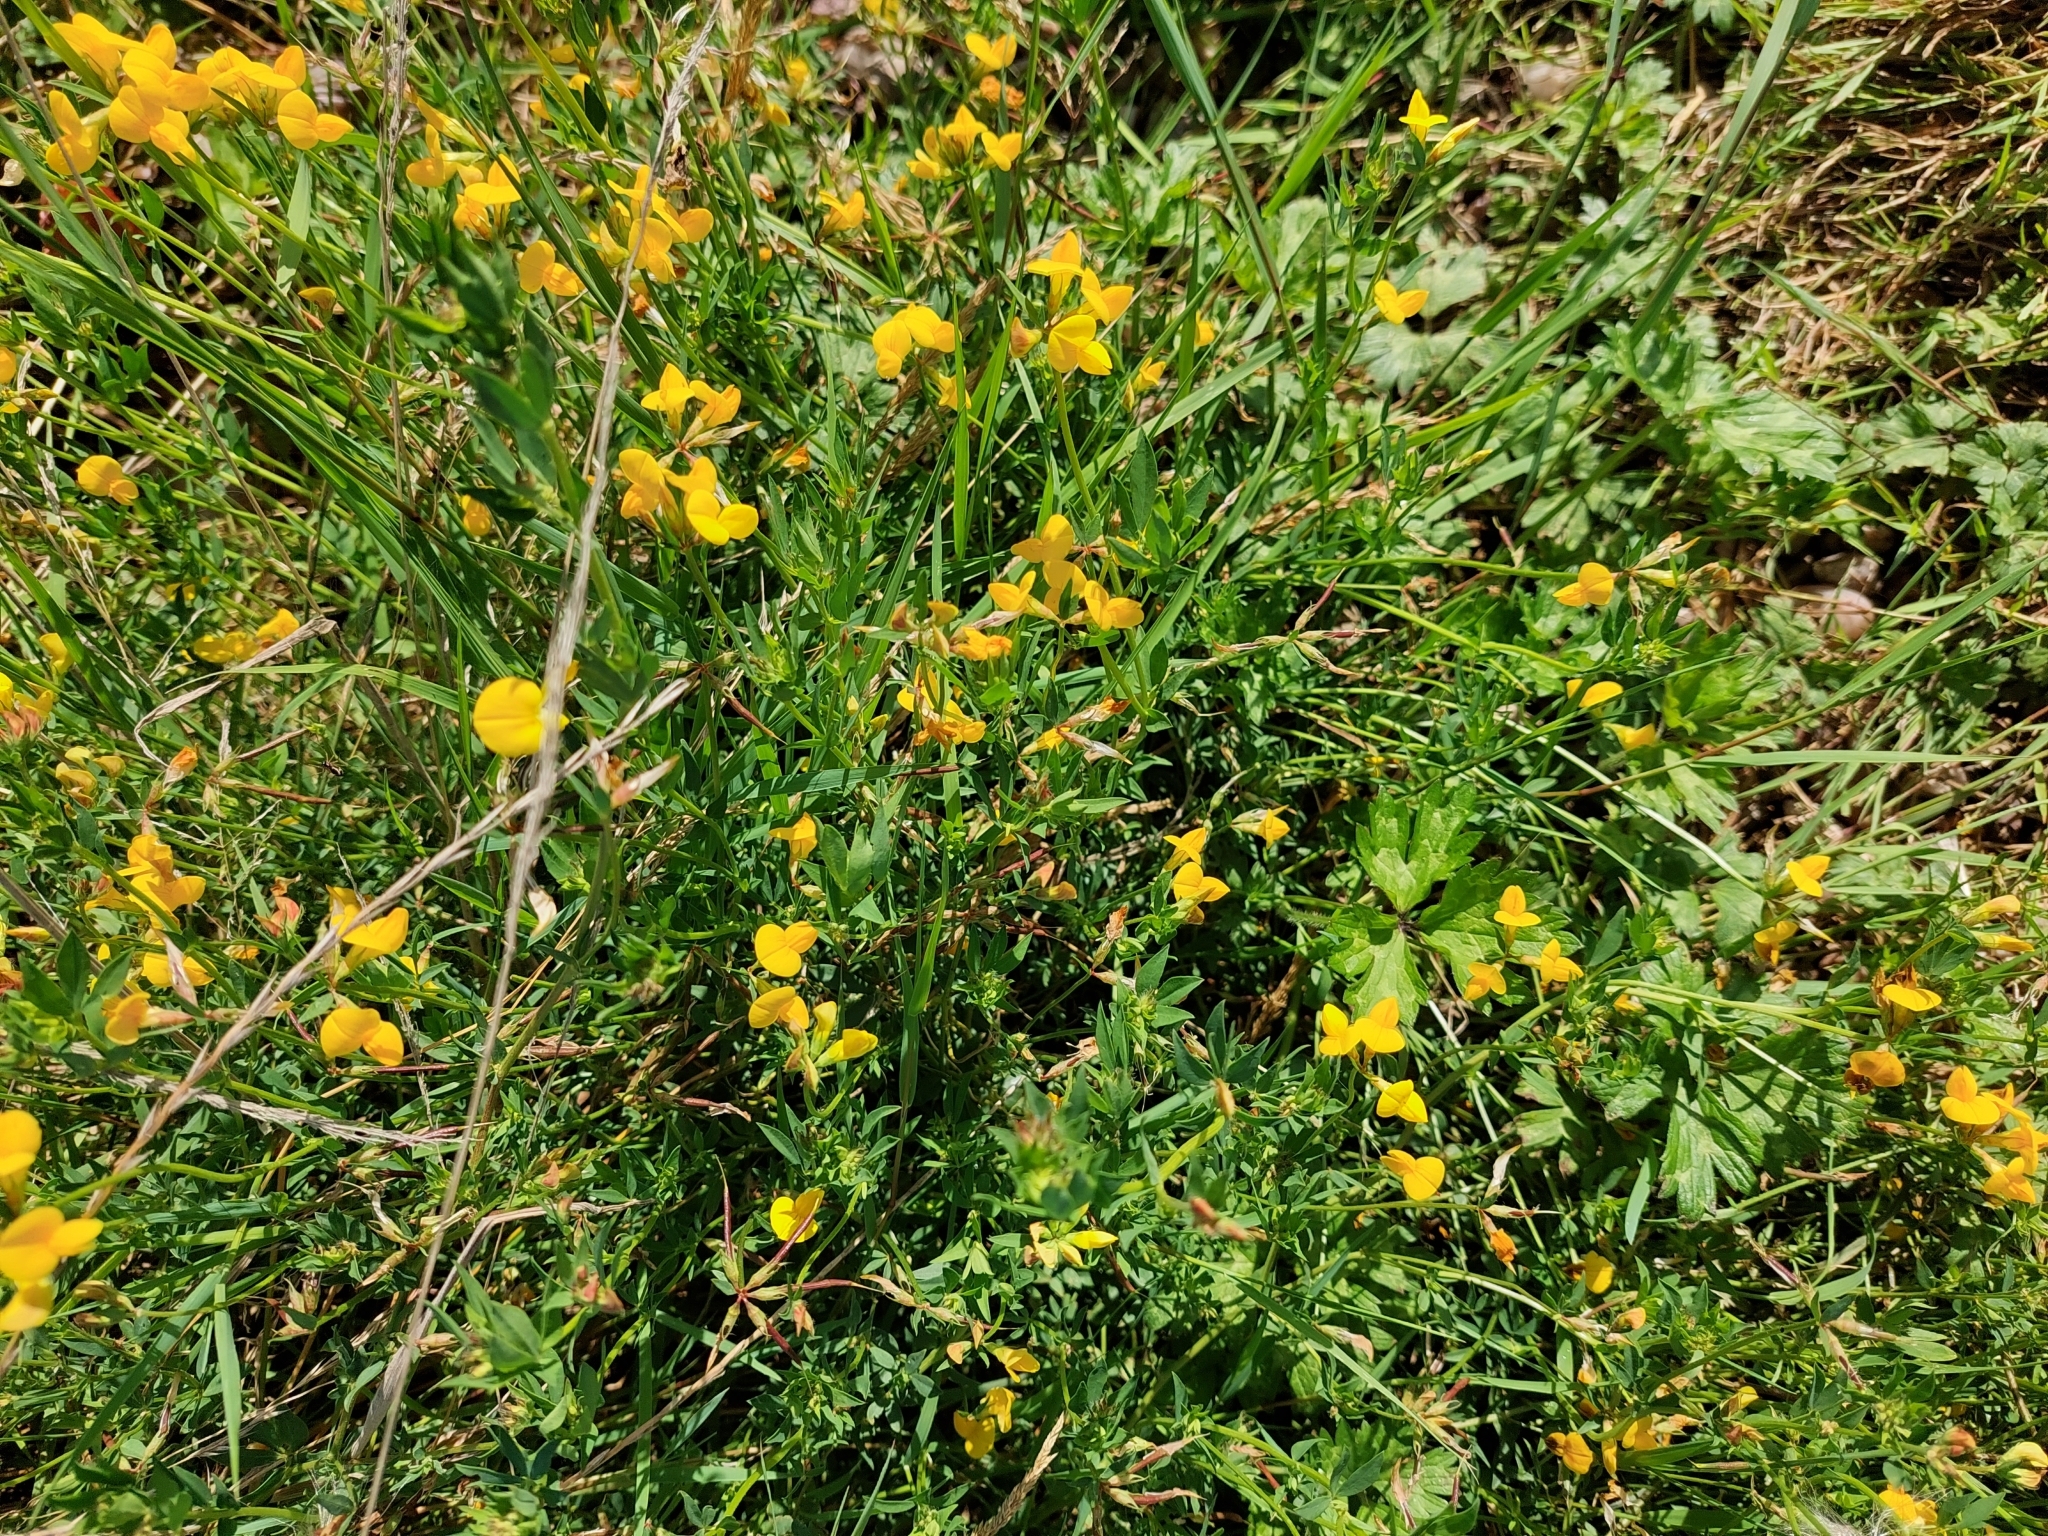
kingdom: Plantae
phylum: Tracheophyta
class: Magnoliopsida
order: Fabales
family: Fabaceae
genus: Lotus
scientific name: Lotus corniculatus
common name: Common bird's-foot-trefoil
